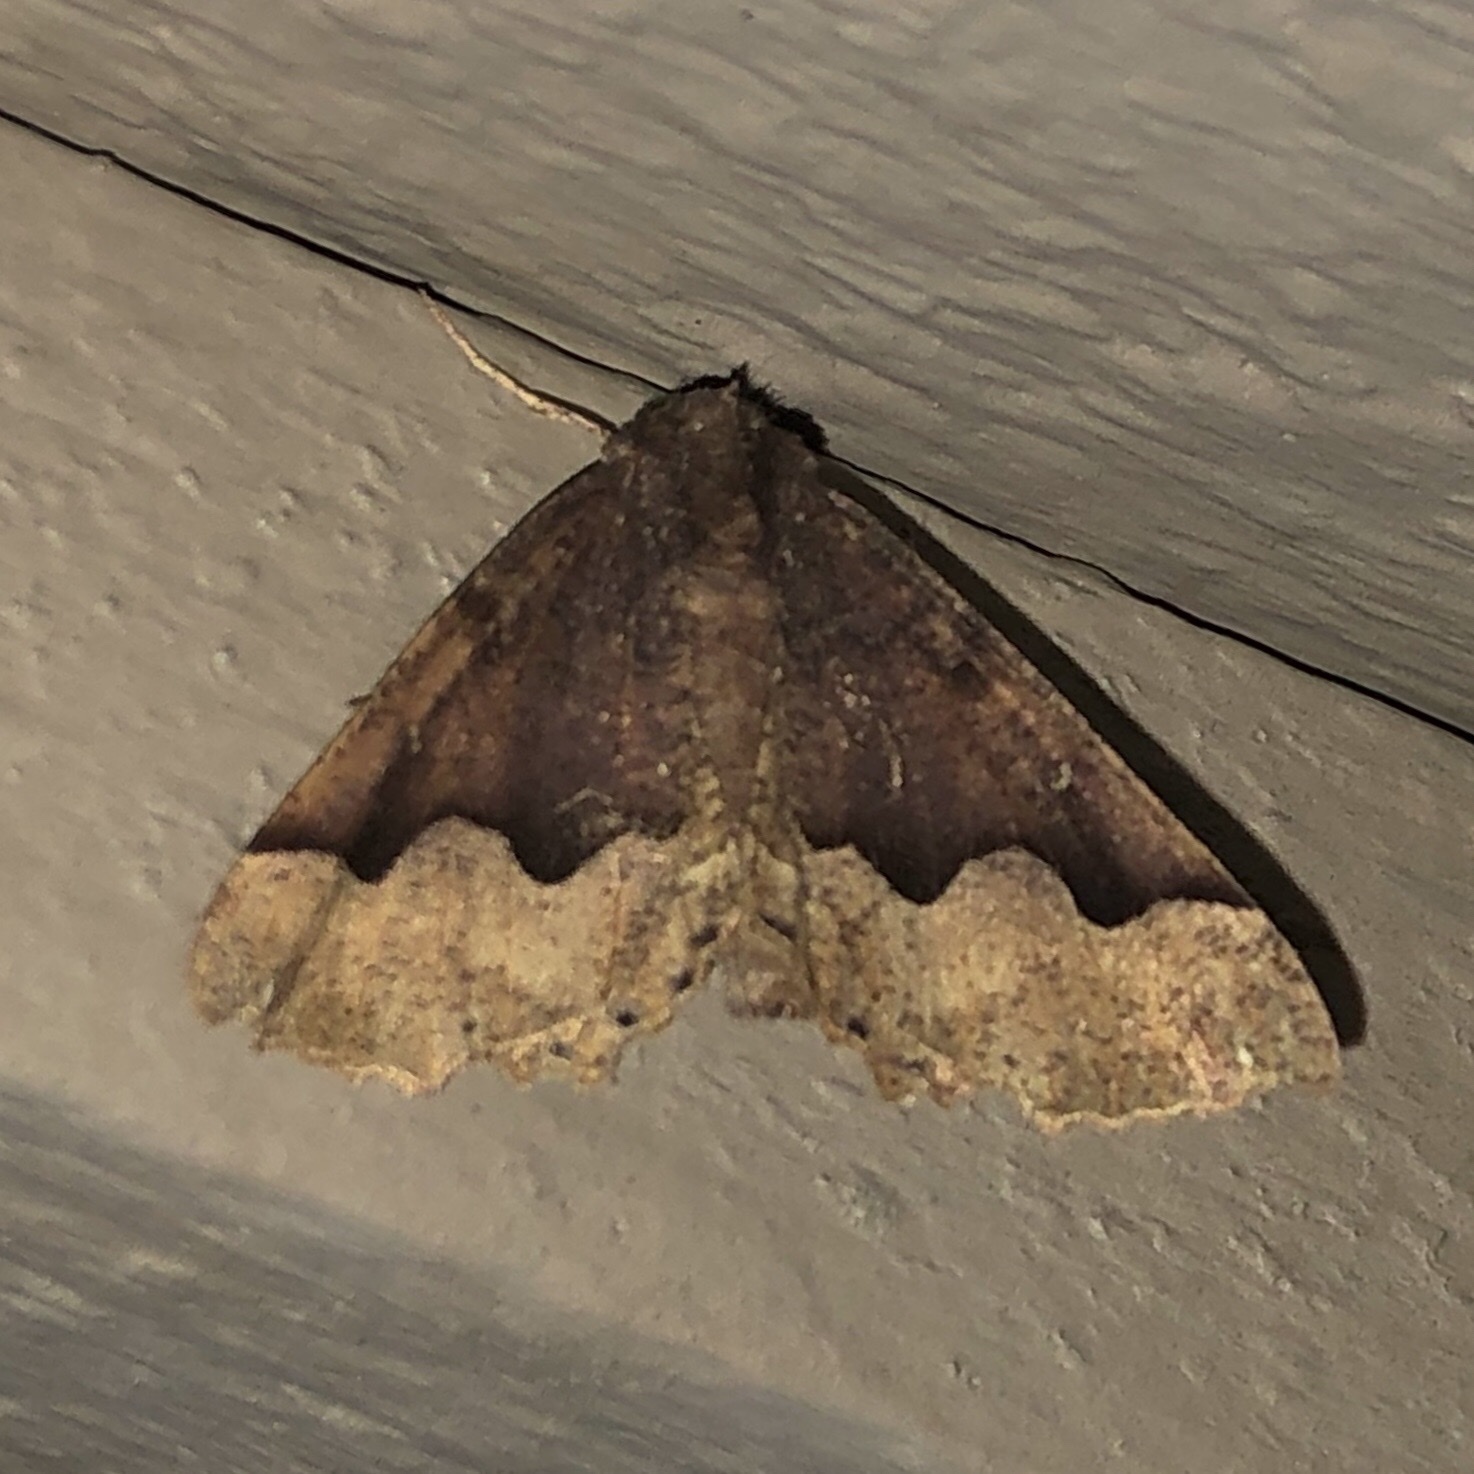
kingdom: Animalia
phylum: Arthropoda
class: Insecta
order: Lepidoptera
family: Geometridae
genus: Pero
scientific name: Pero ancetaria
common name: Hübner's pero
